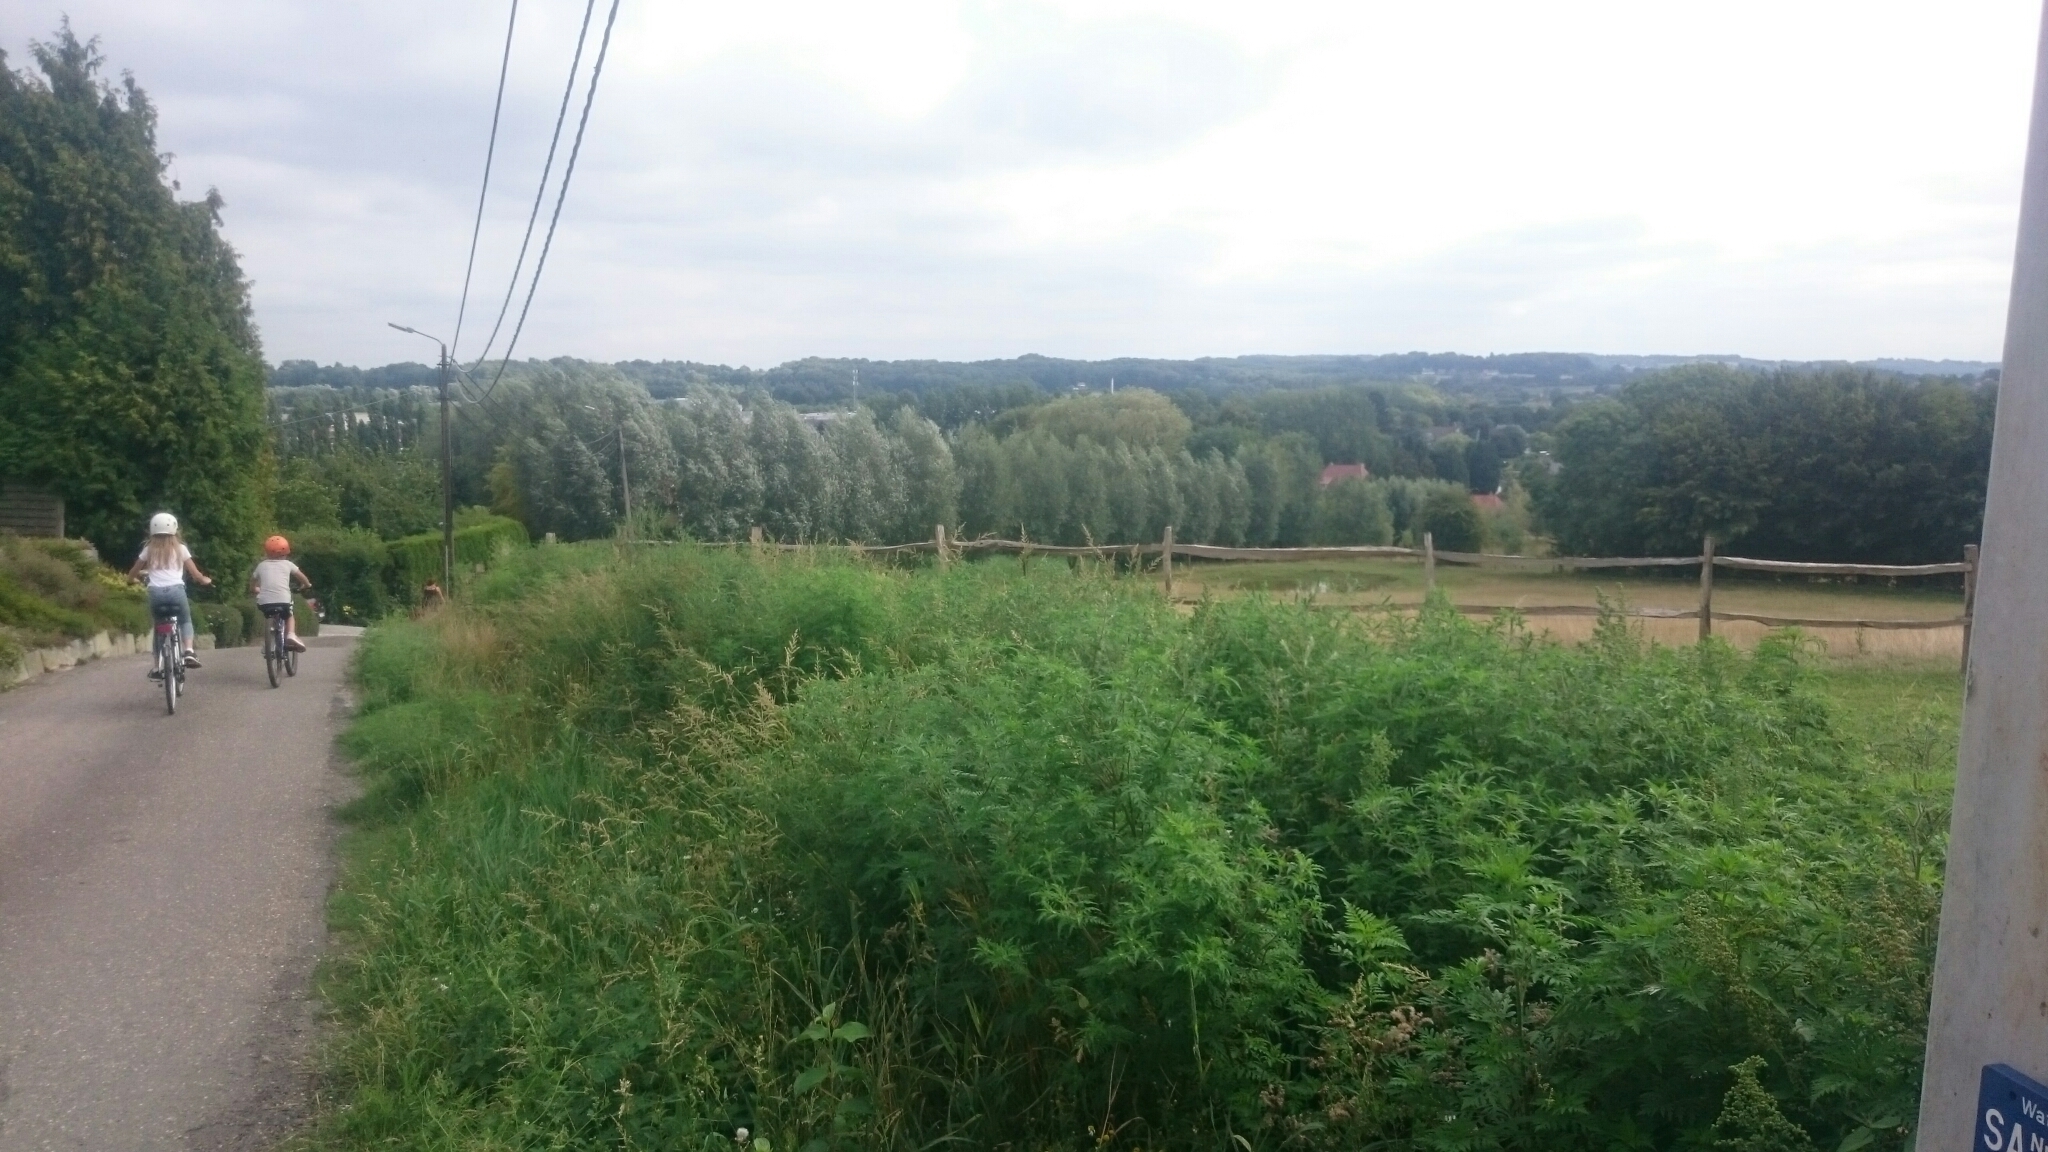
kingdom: Plantae
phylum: Tracheophyta
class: Magnoliopsida
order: Asterales
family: Asteraceae
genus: Ambrosia
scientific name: Ambrosia artemisiifolia
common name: Annual ragweed
